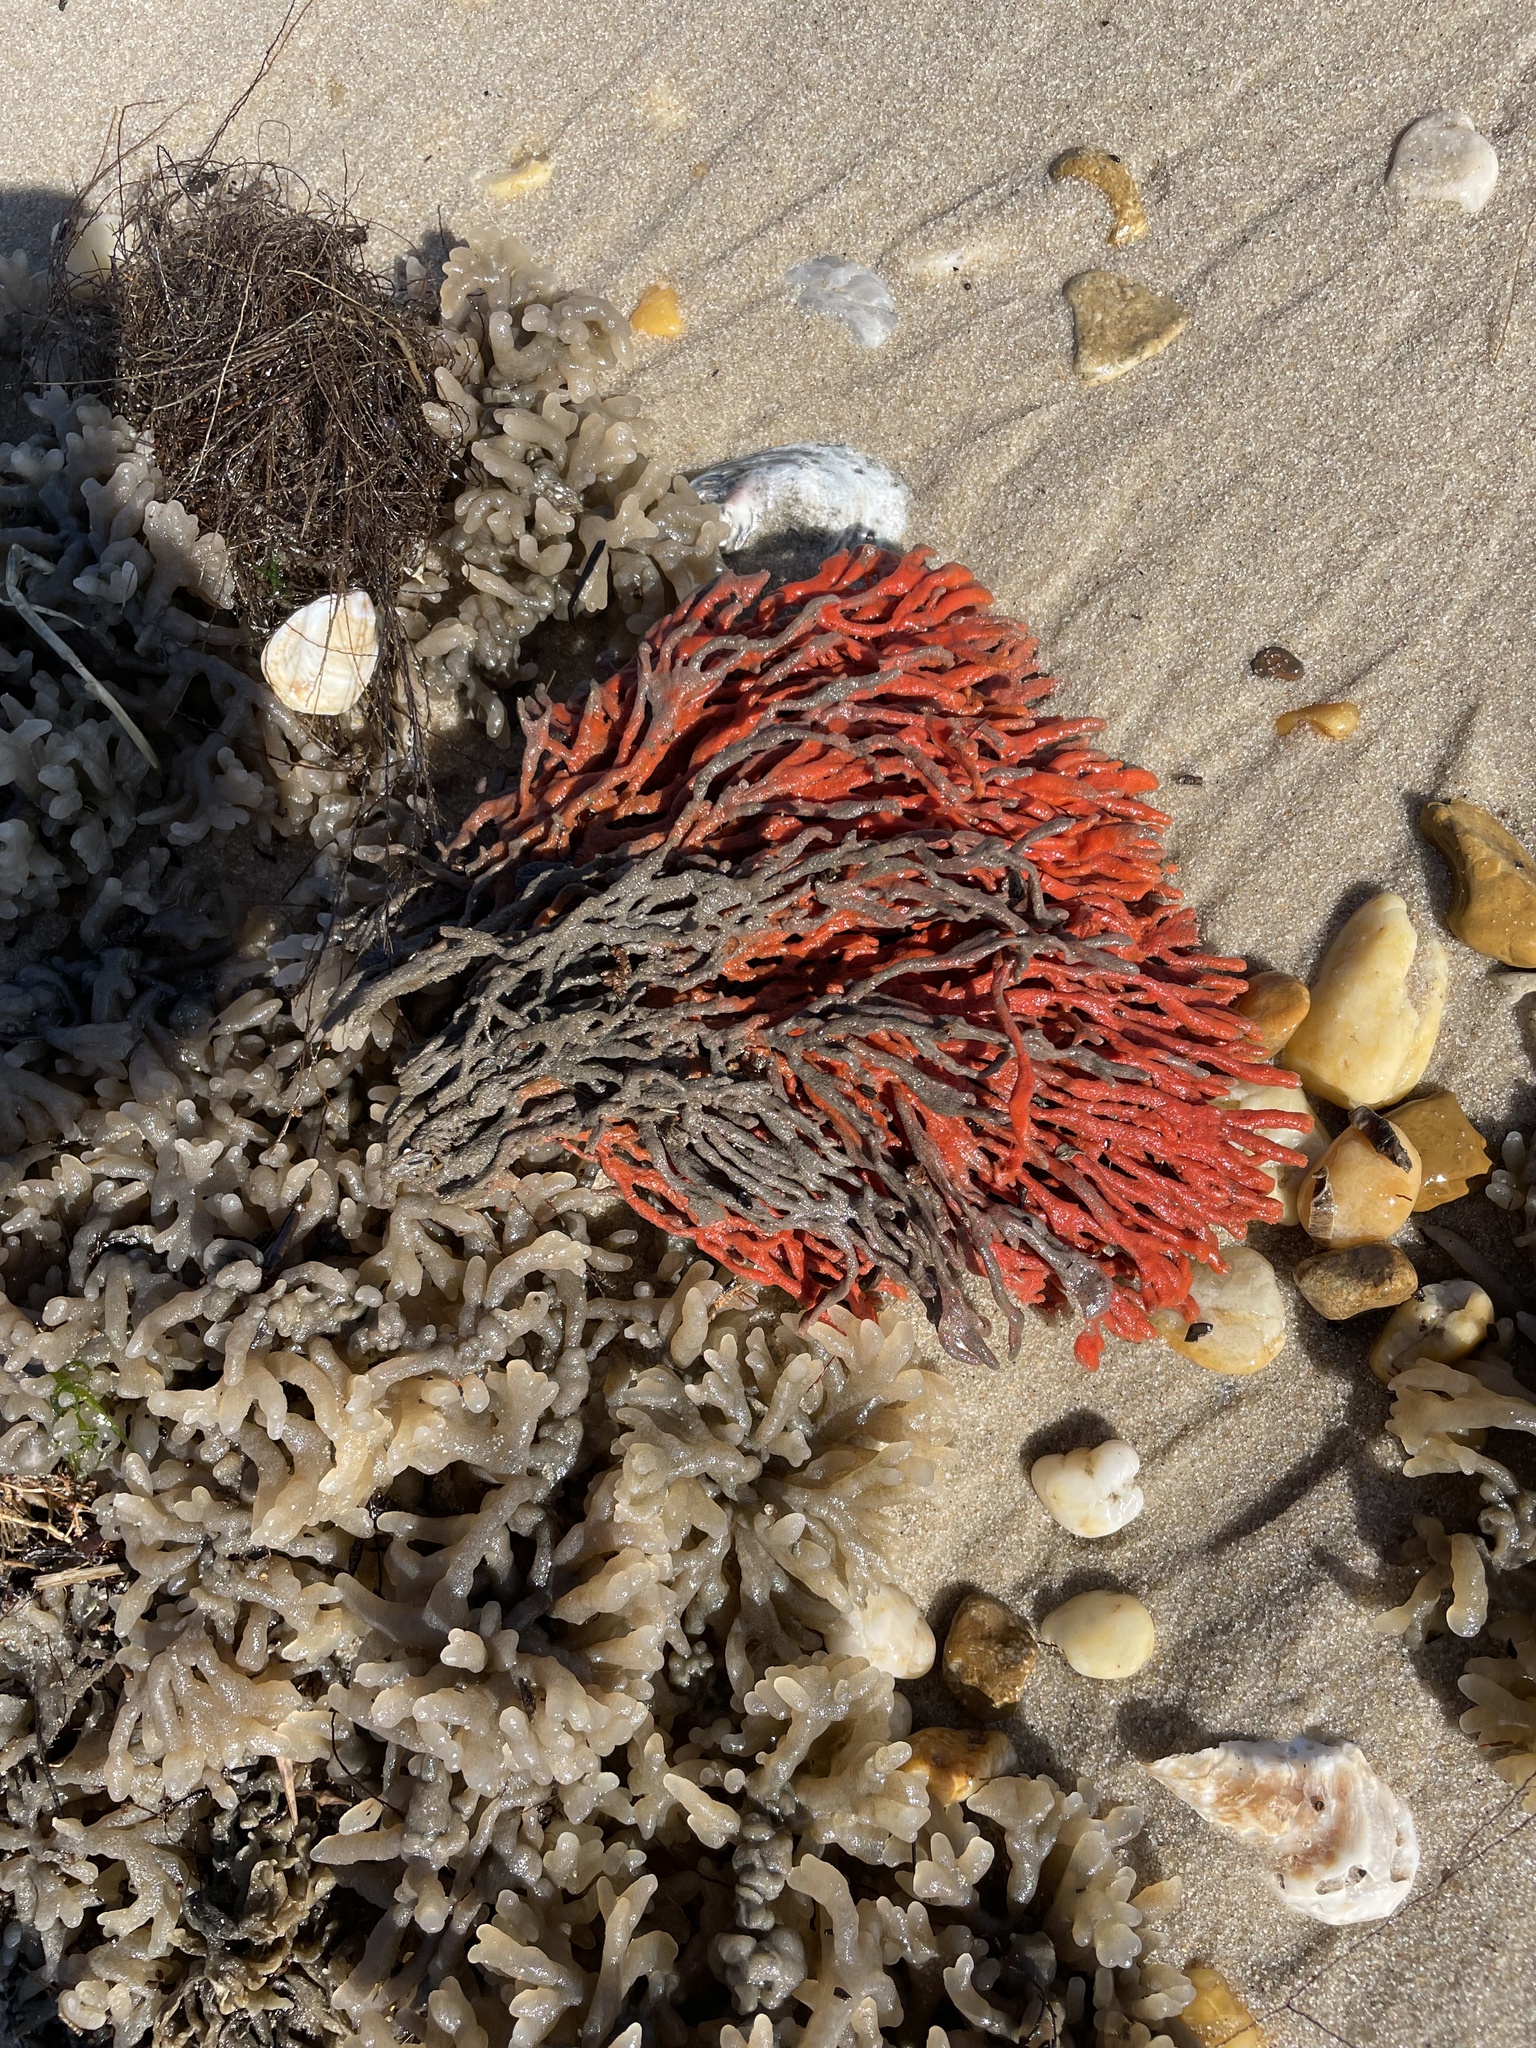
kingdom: Animalia
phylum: Porifera
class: Demospongiae
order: Poecilosclerida
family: Microcionidae
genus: Clathria
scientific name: Clathria prolifera
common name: Red beard sponge
